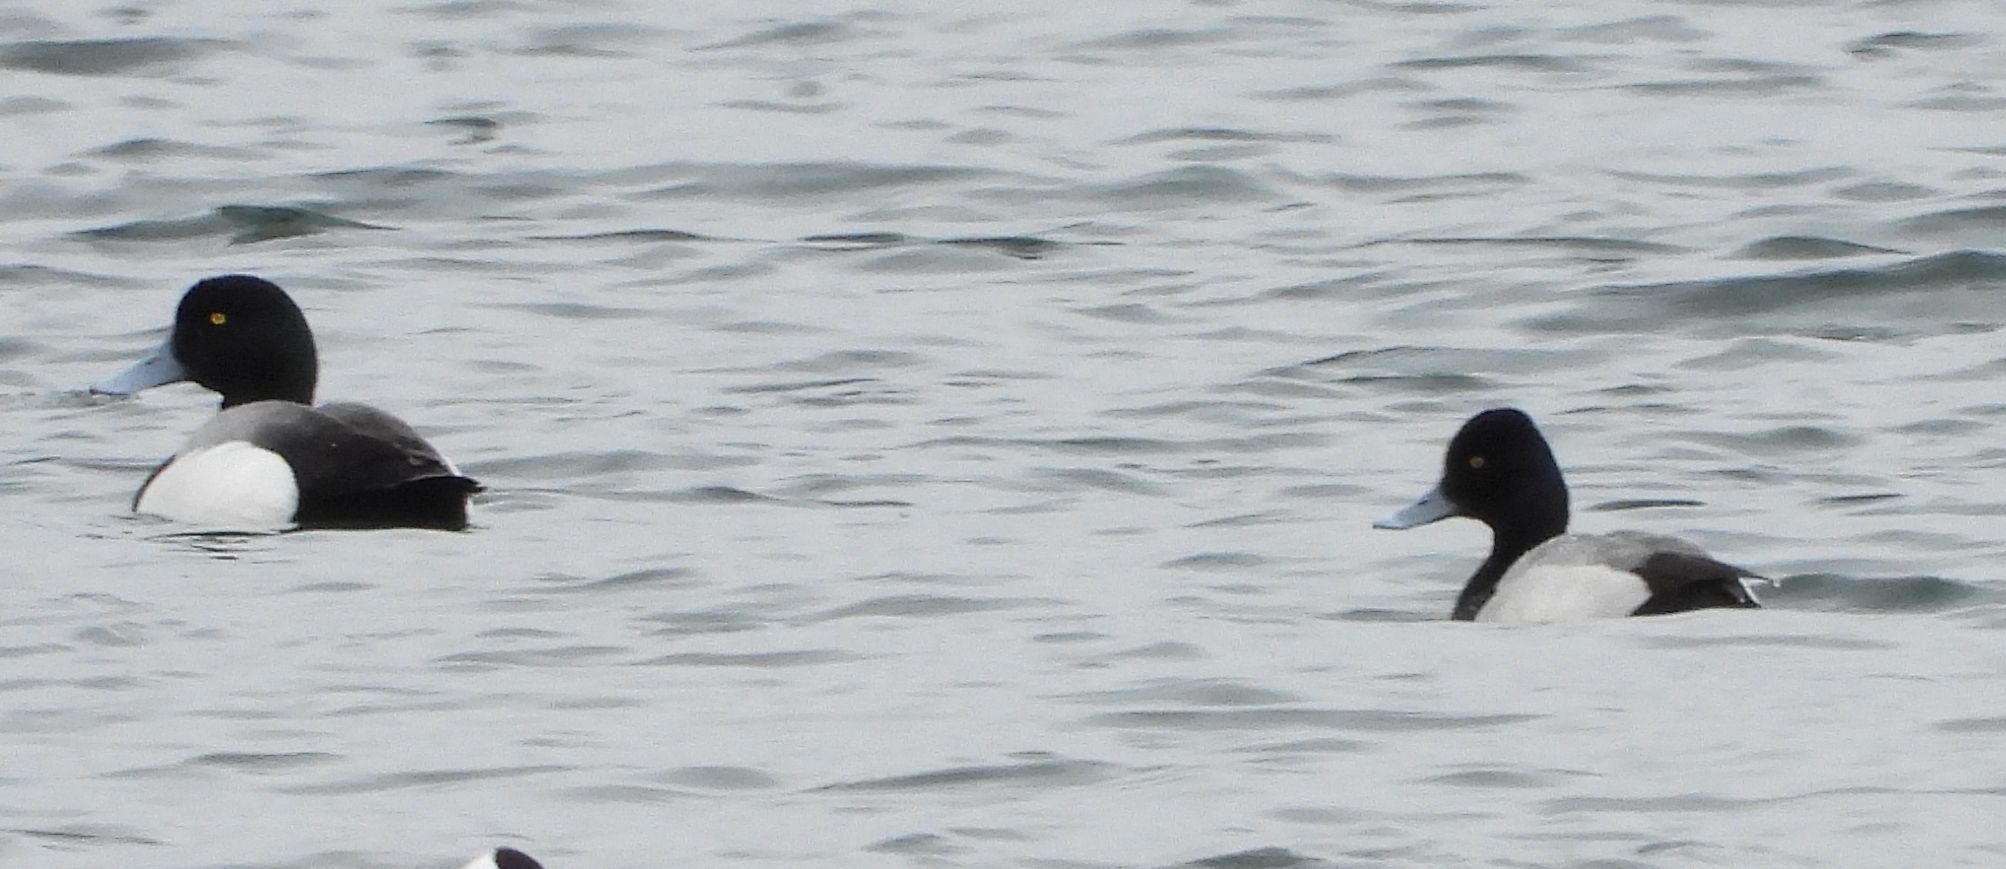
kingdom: Animalia
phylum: Chordata
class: Aves
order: Anseriformes
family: Anatidae
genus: Aythya
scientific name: Aythya affinis
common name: Lesser scaup
